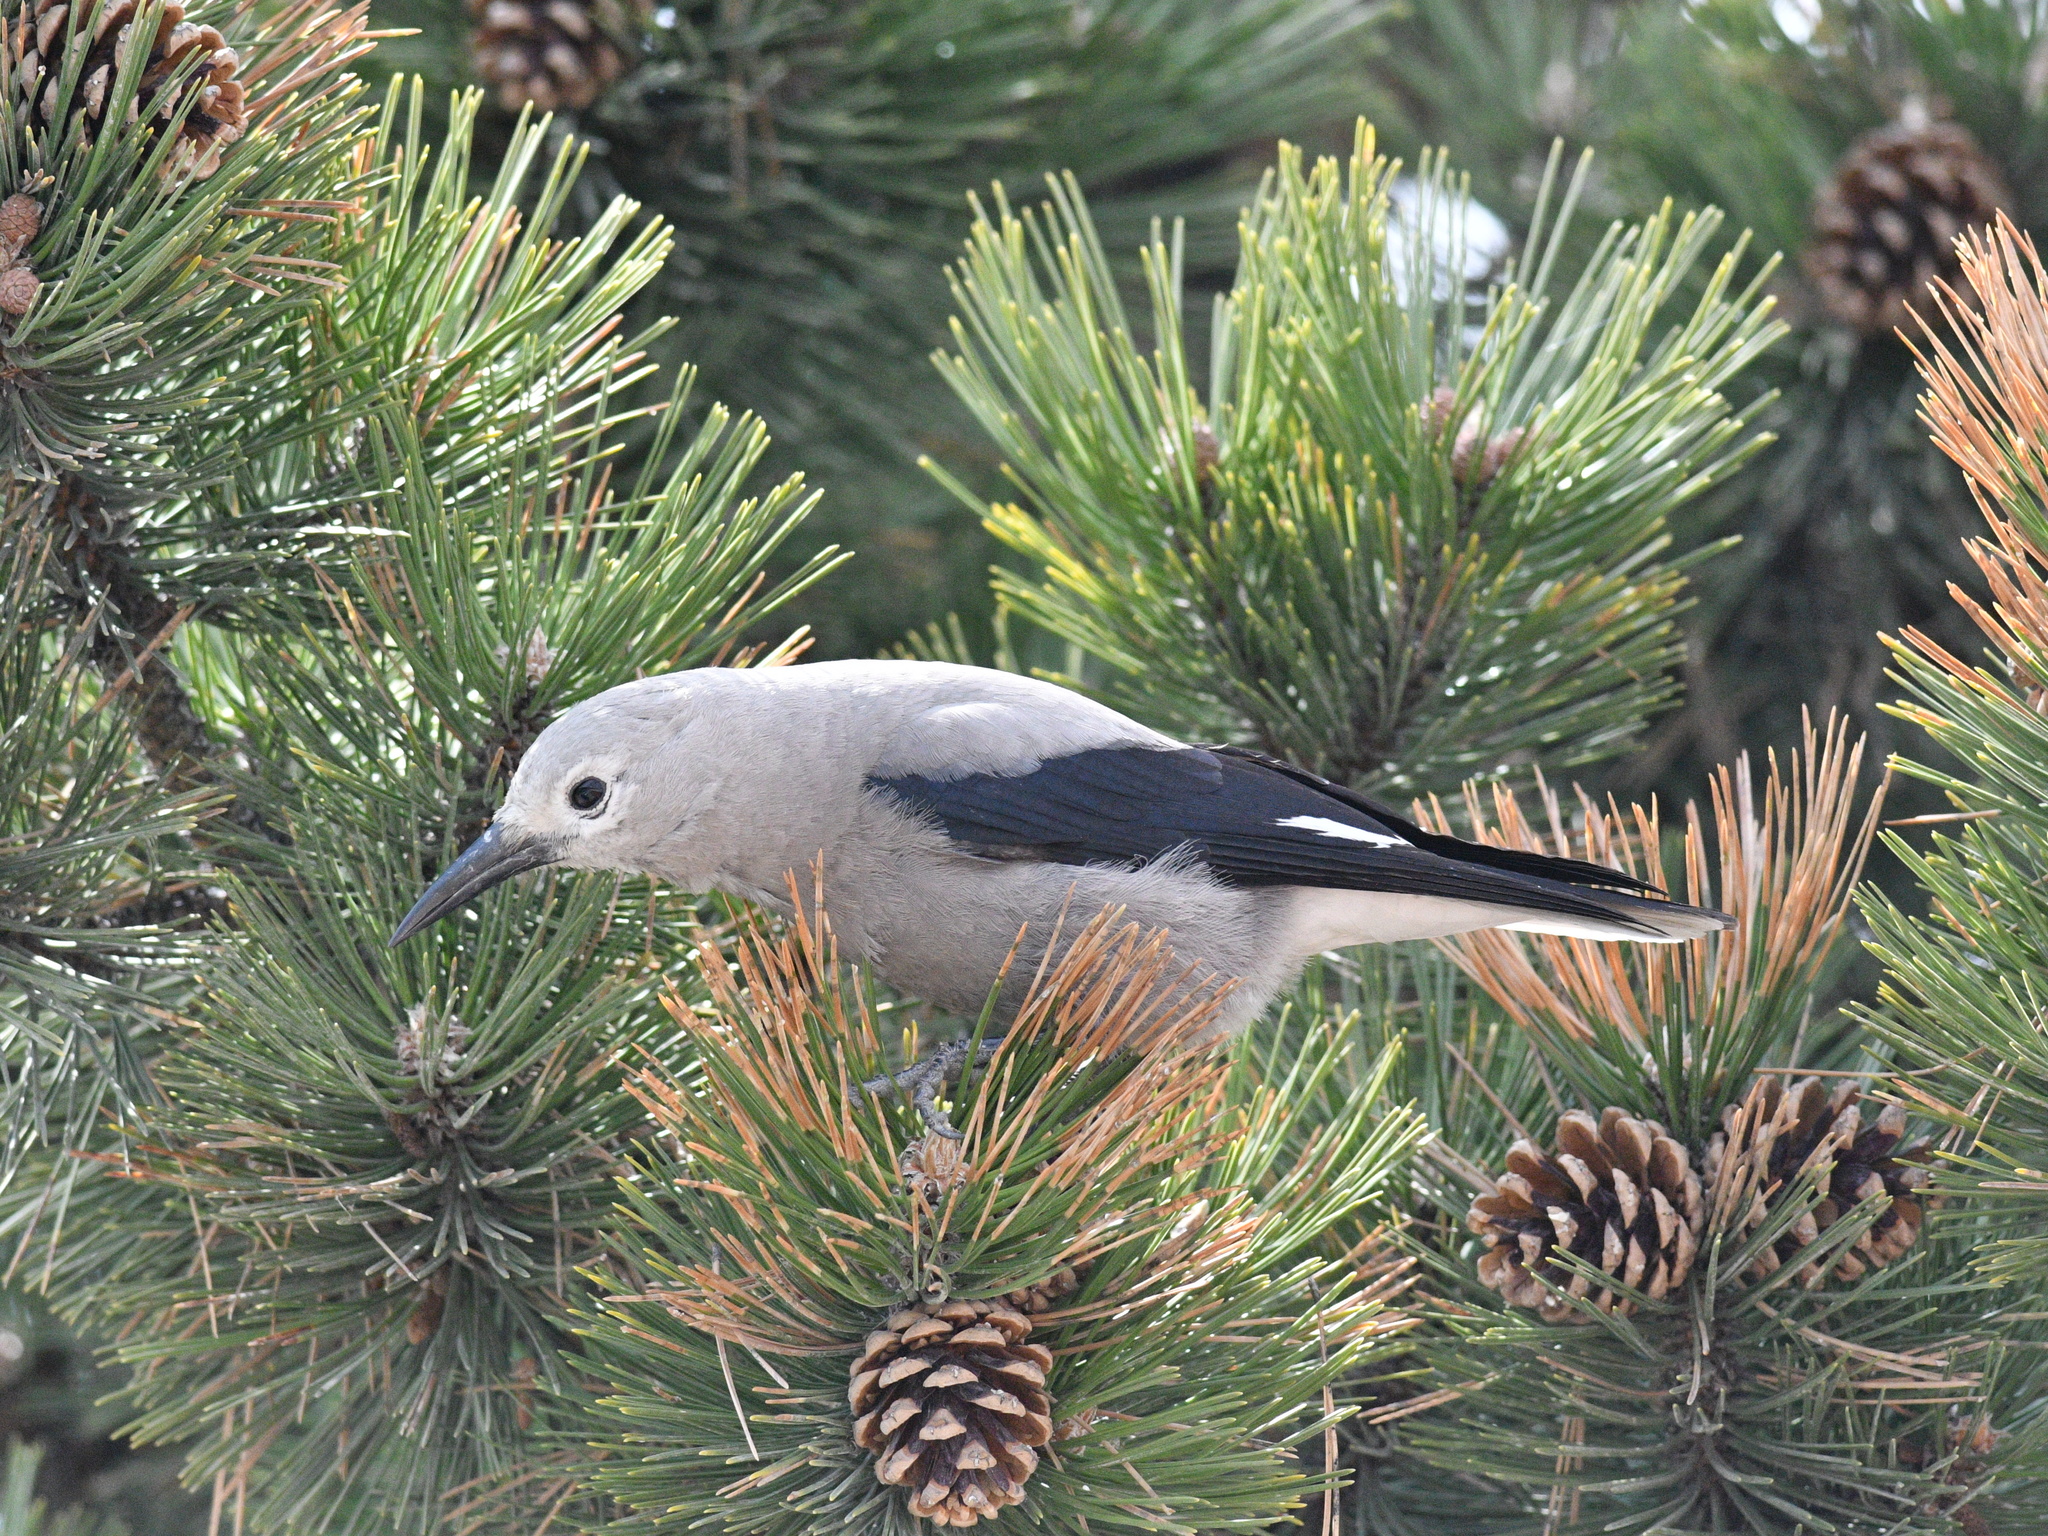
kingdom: Animalia
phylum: Chordata
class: Aves
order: Passeriformes
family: Corvidae
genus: Nucifraga
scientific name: Nucifraga columbiana
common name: Clark's nutcracker
